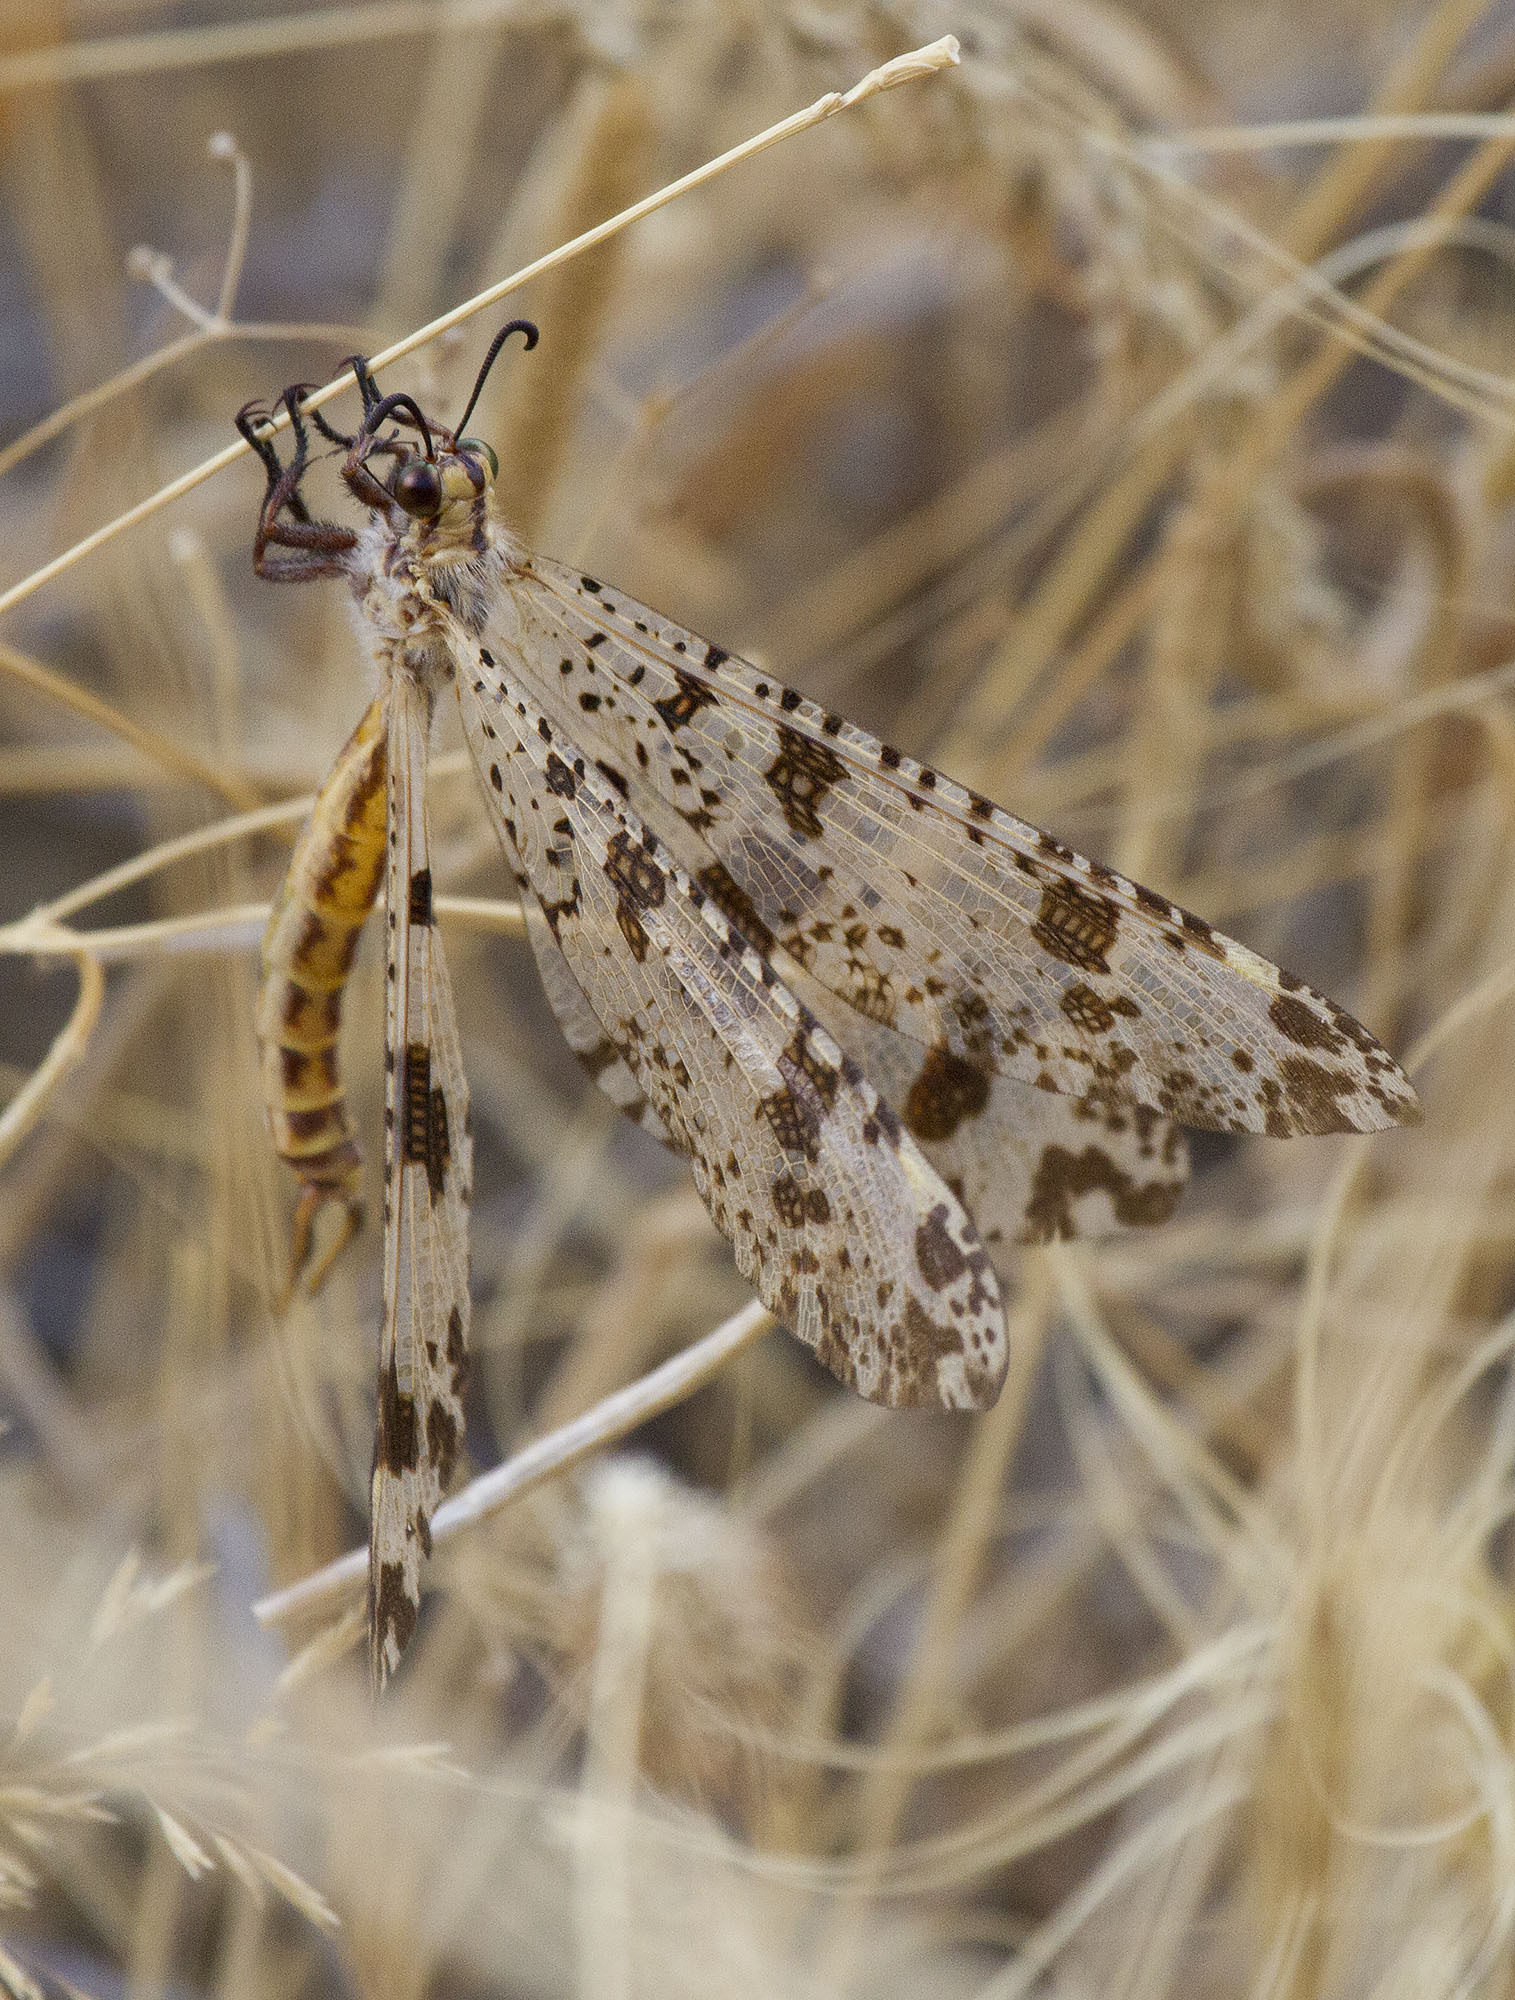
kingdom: Animalia
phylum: Arthropoda
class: Insecta
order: Neuroptera
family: Myrmeleontidae
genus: Palpares
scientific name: Palpares libelluloides
